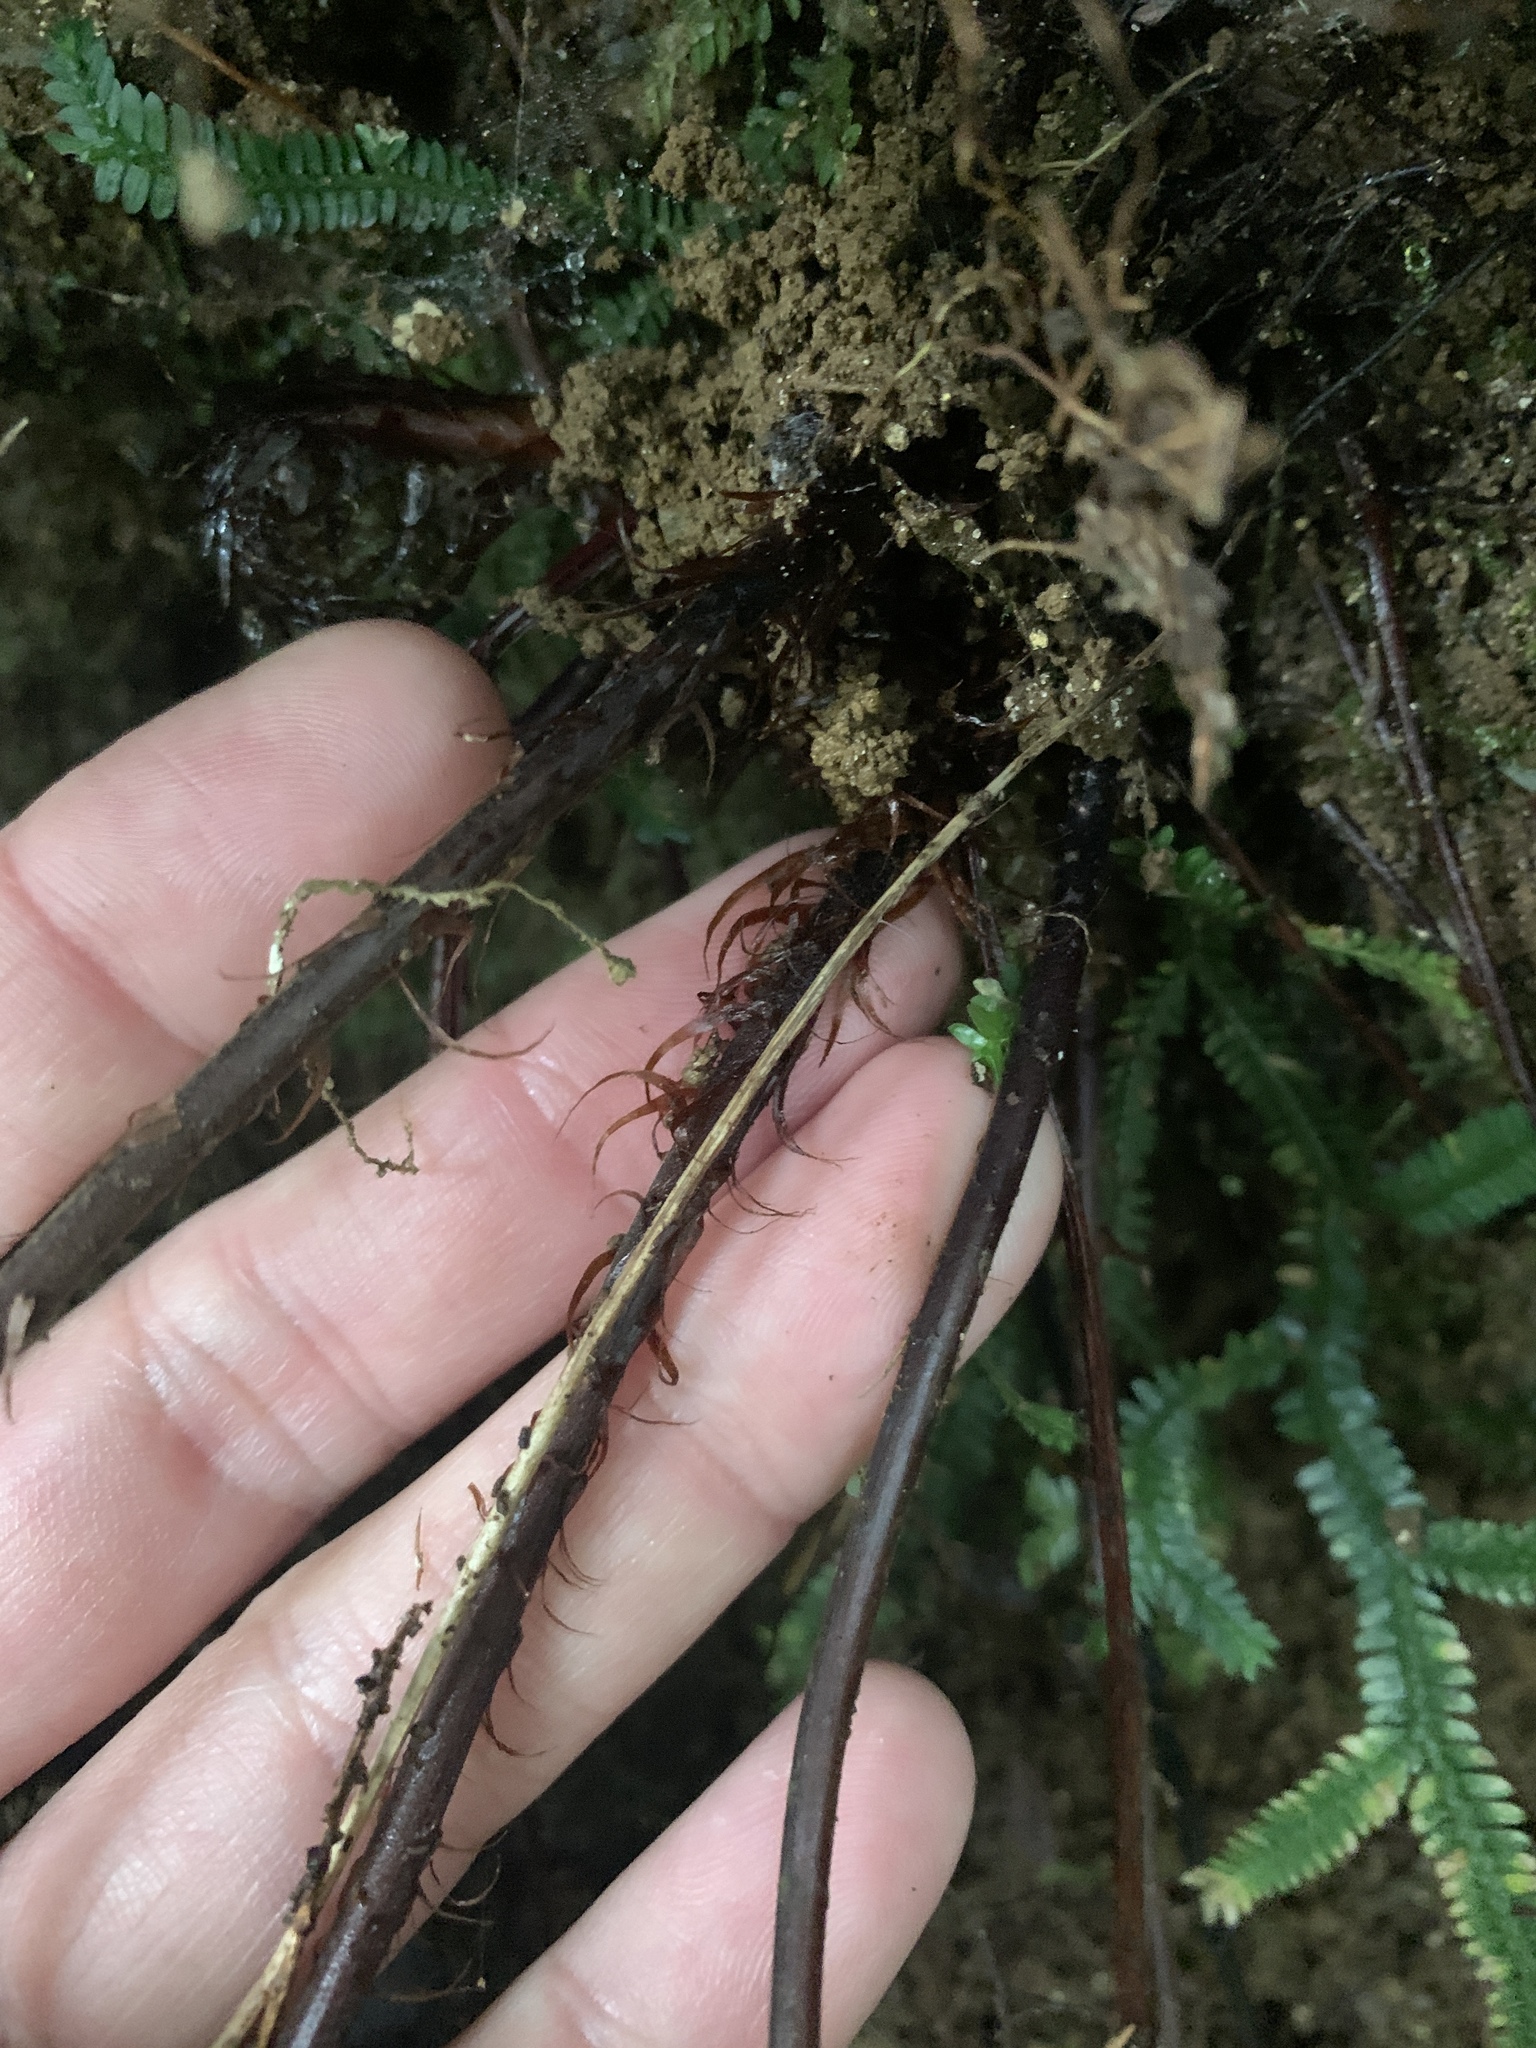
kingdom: Plantae
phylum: Tracheophyta
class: Polypodiopsida
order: Polypodiales
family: Tectariaceae
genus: Tectaria
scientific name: Tectaria griffithii
